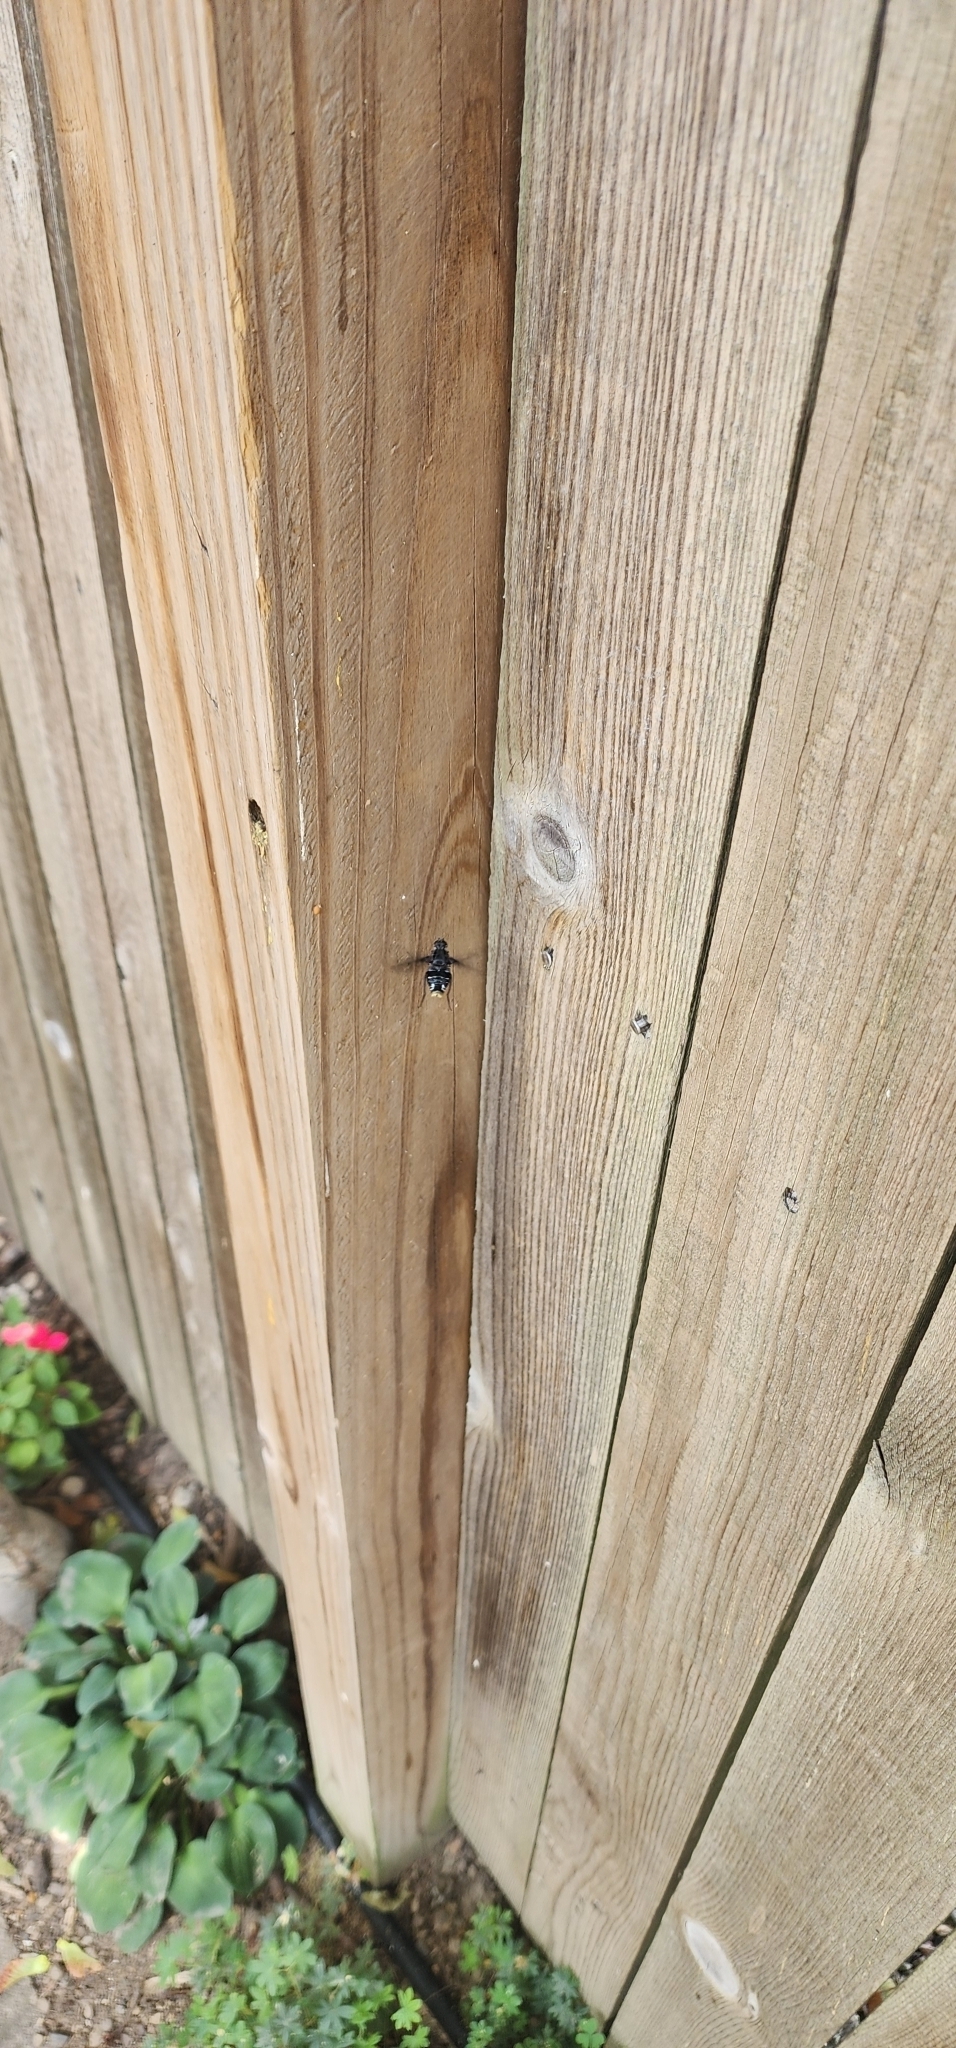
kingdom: Animalia
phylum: Arthropoda
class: Insecta
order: Diptera
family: Bombyliidae
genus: Xenox
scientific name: Xenox tigrinus
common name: Tiger bee fly
